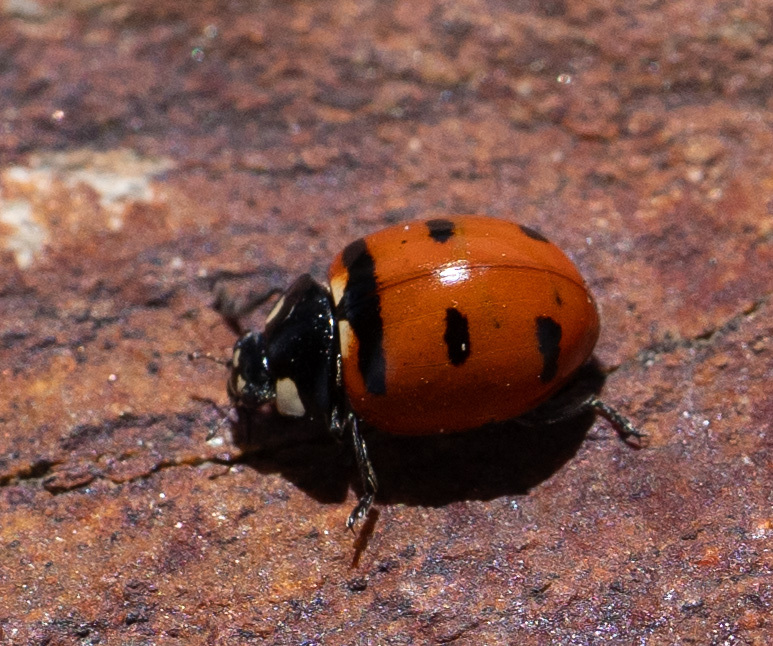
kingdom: Animalia
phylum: Arthropoda
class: Insecta
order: Coleoptera
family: Coccinellidae
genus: Coccinella
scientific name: Coccinella transversoguttata
